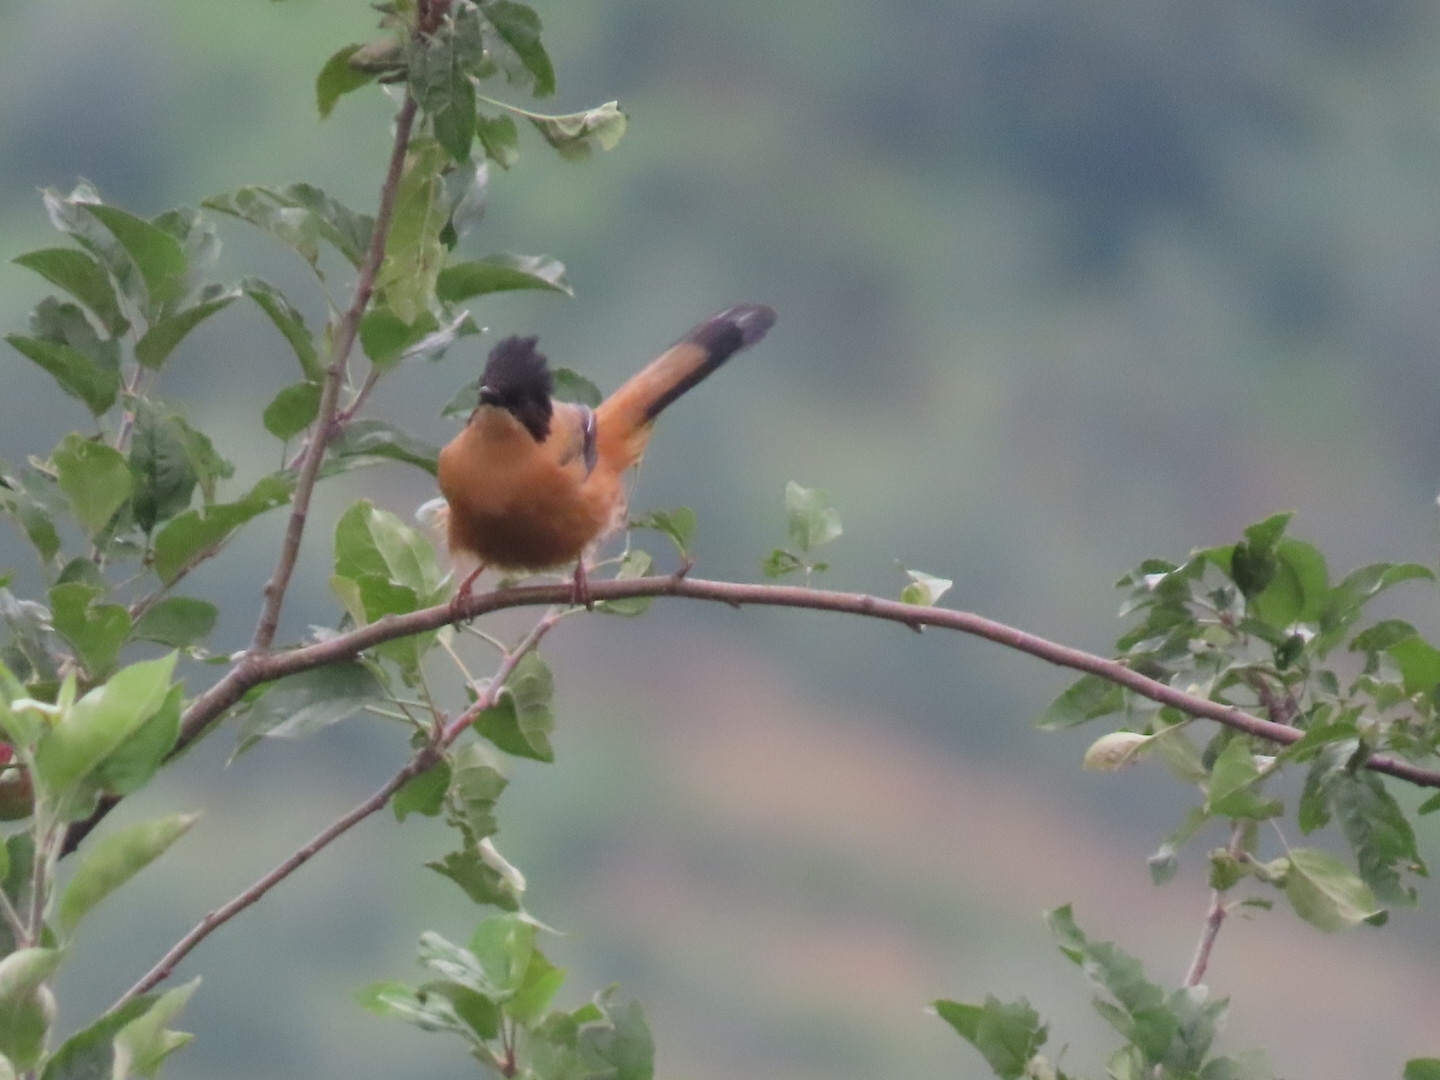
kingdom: Animalia
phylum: Chordata
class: Aves
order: Passeriformes
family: Leiothrichidae
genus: Heterophasia
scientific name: Heterophasia capistrata
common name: Rufous sibia
